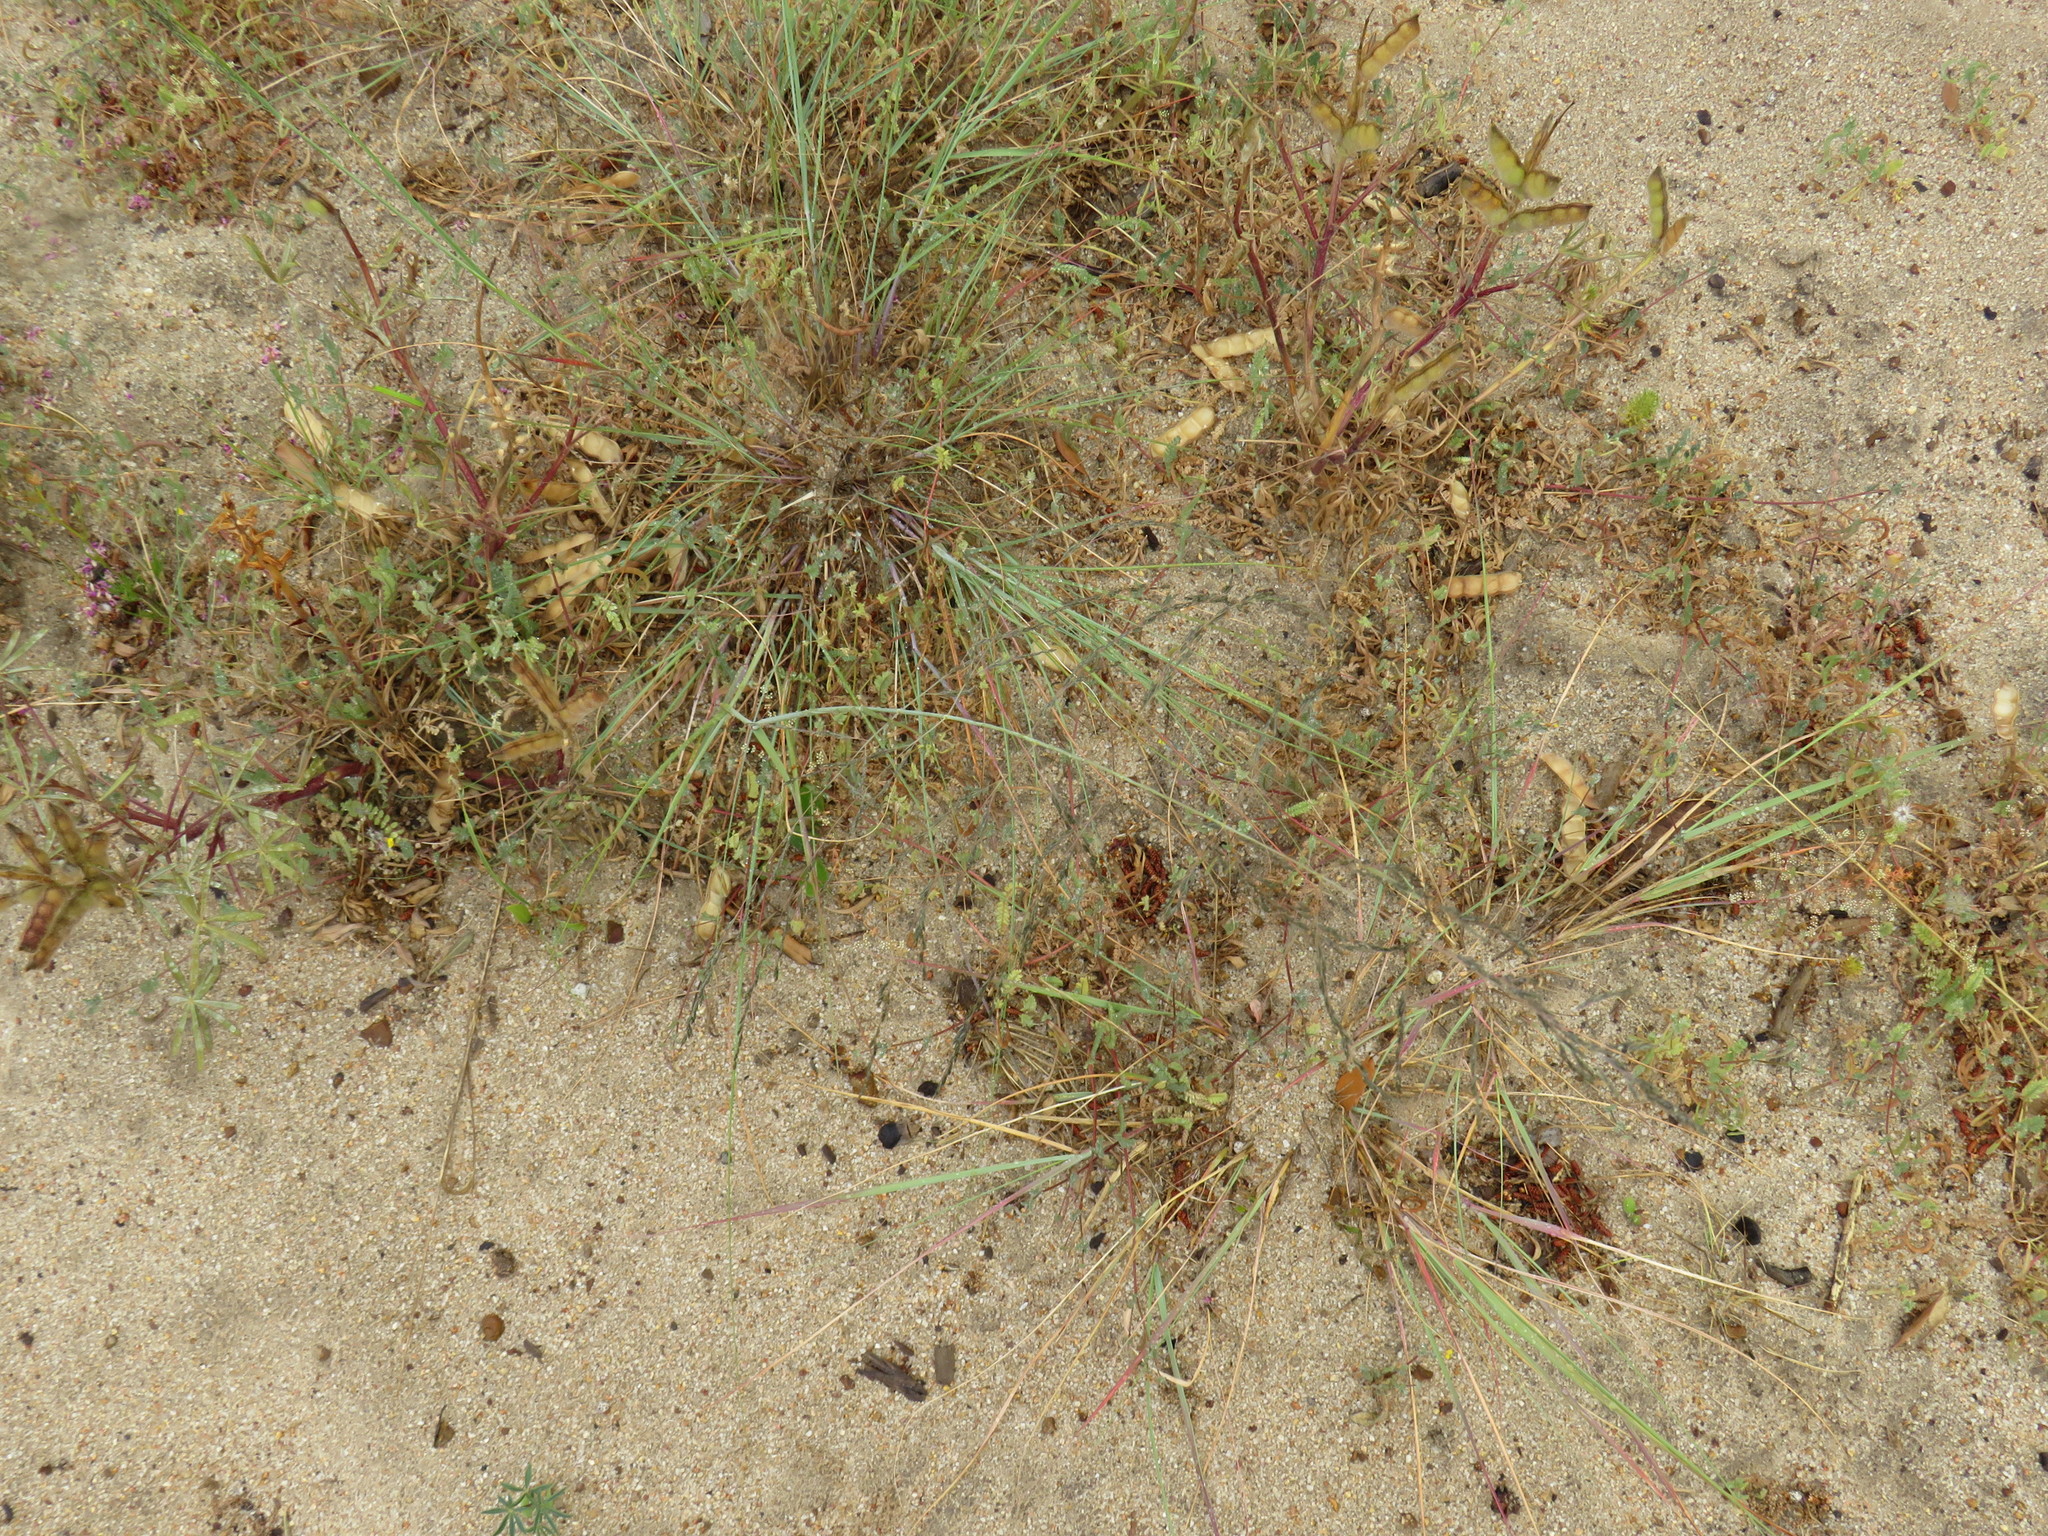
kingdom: Plantae
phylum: Tracheophyta
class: Magnoliopsida
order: Geraniales
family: Geraniaceae
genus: Erodium
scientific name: Erodium botrys
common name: Mediterranean stork's-bill
